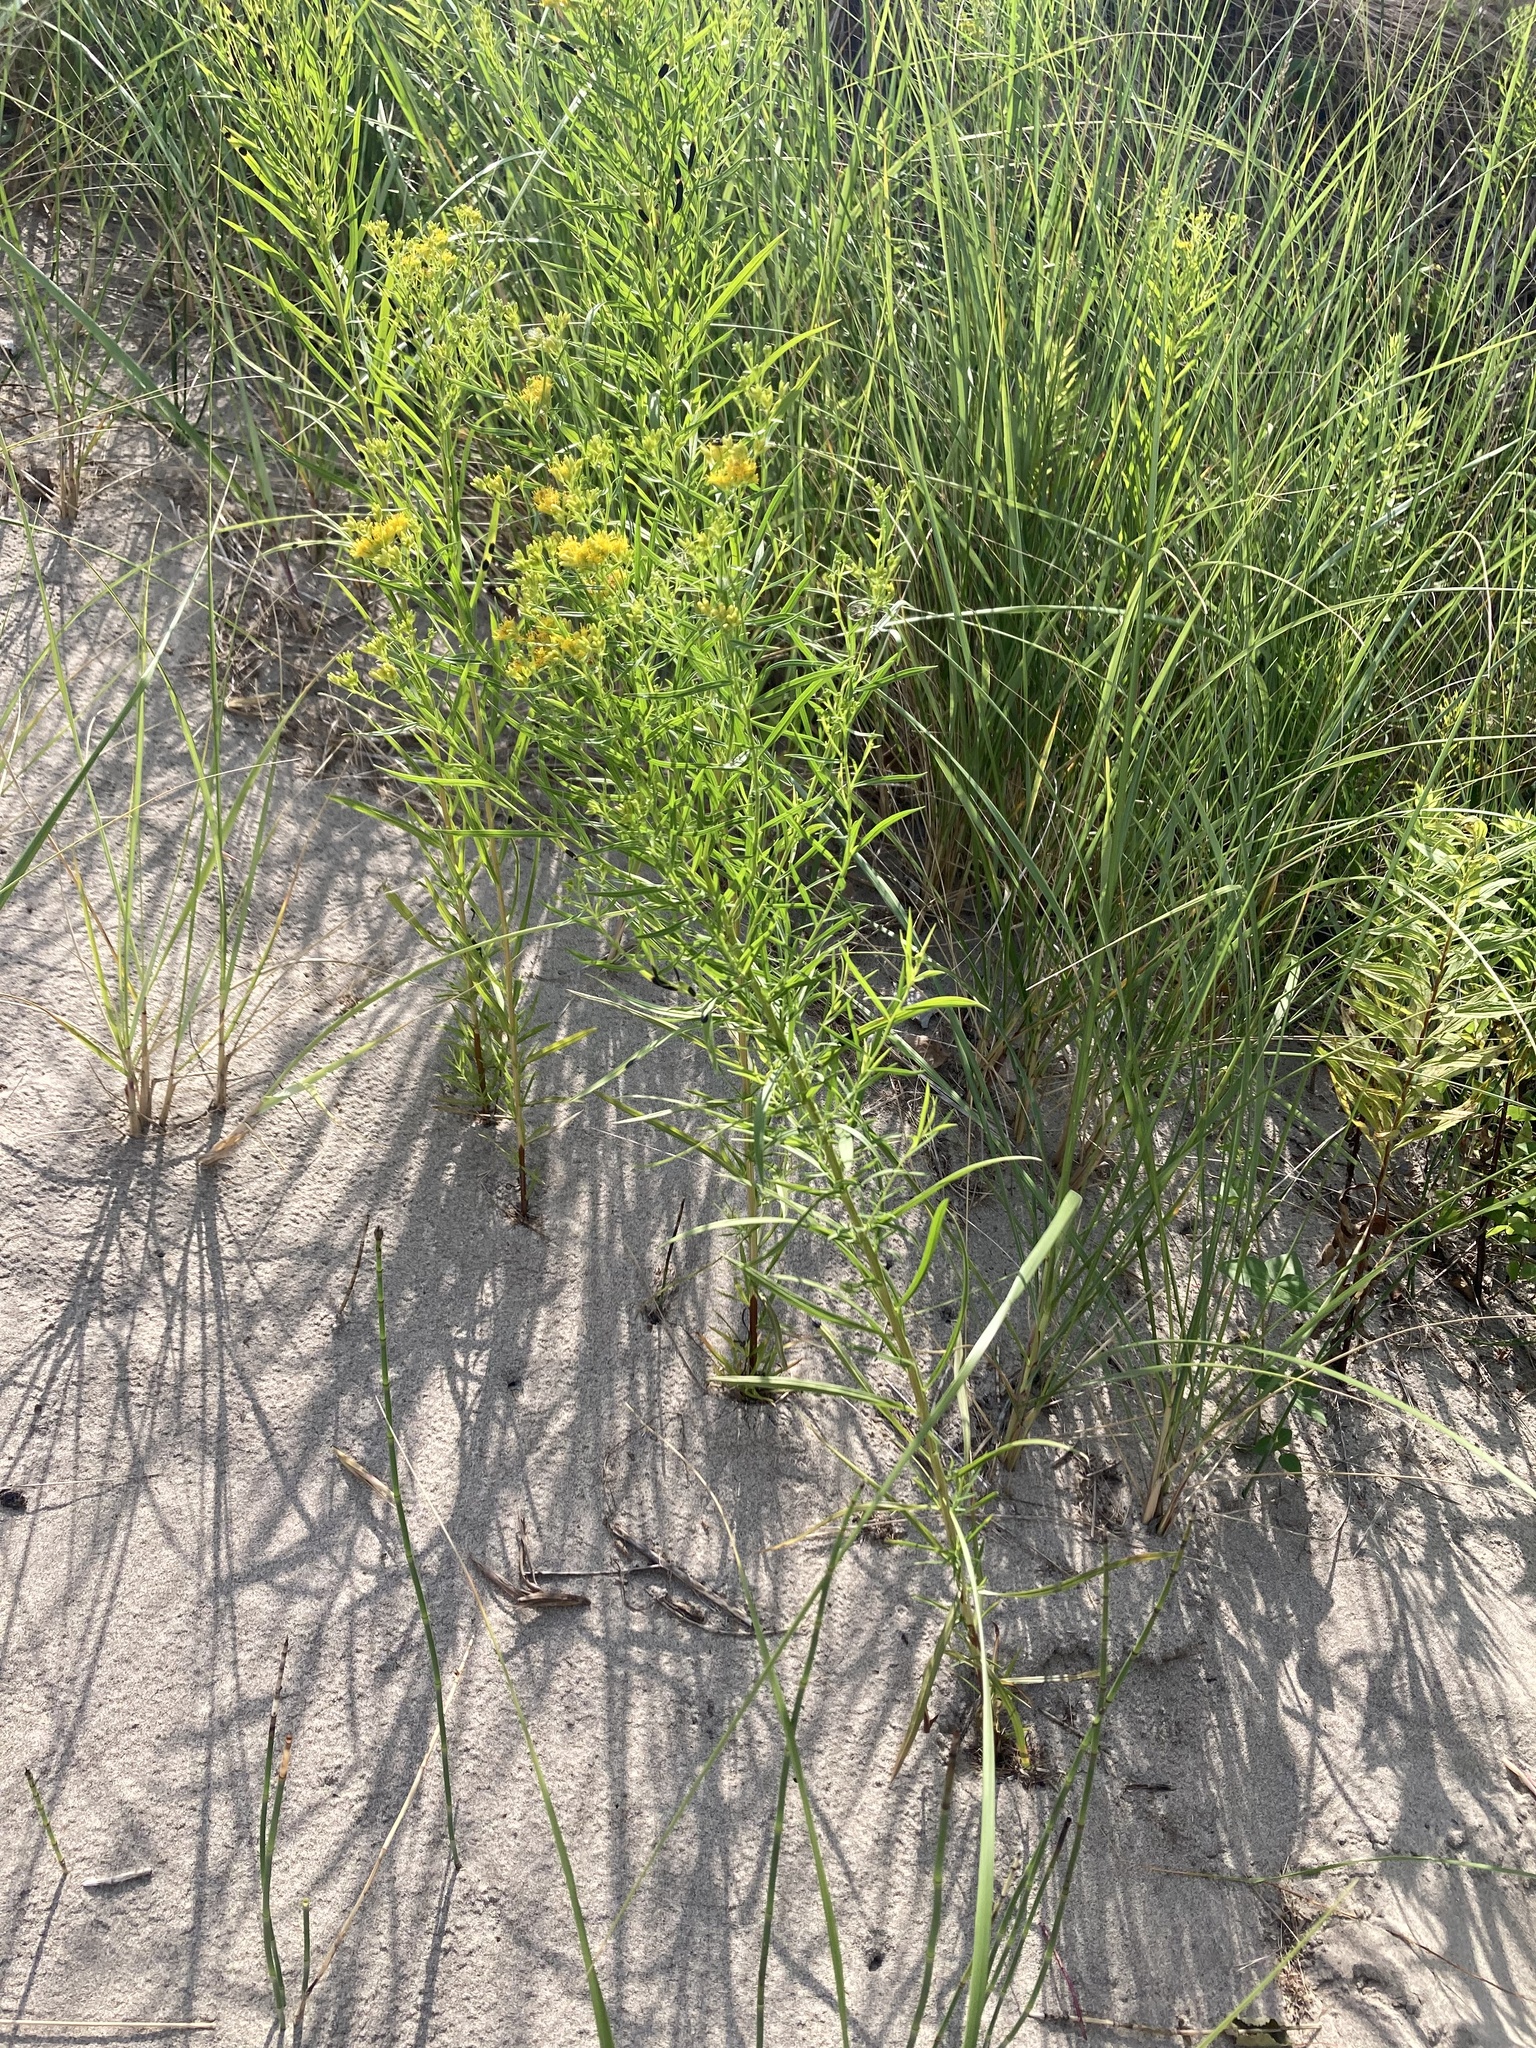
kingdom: Plantae
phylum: Tracheophyta
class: Magnoliopsida
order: Asterales
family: Asteraceae
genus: Euthamia
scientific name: Euthamia graminifolia
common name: Common goldentop
